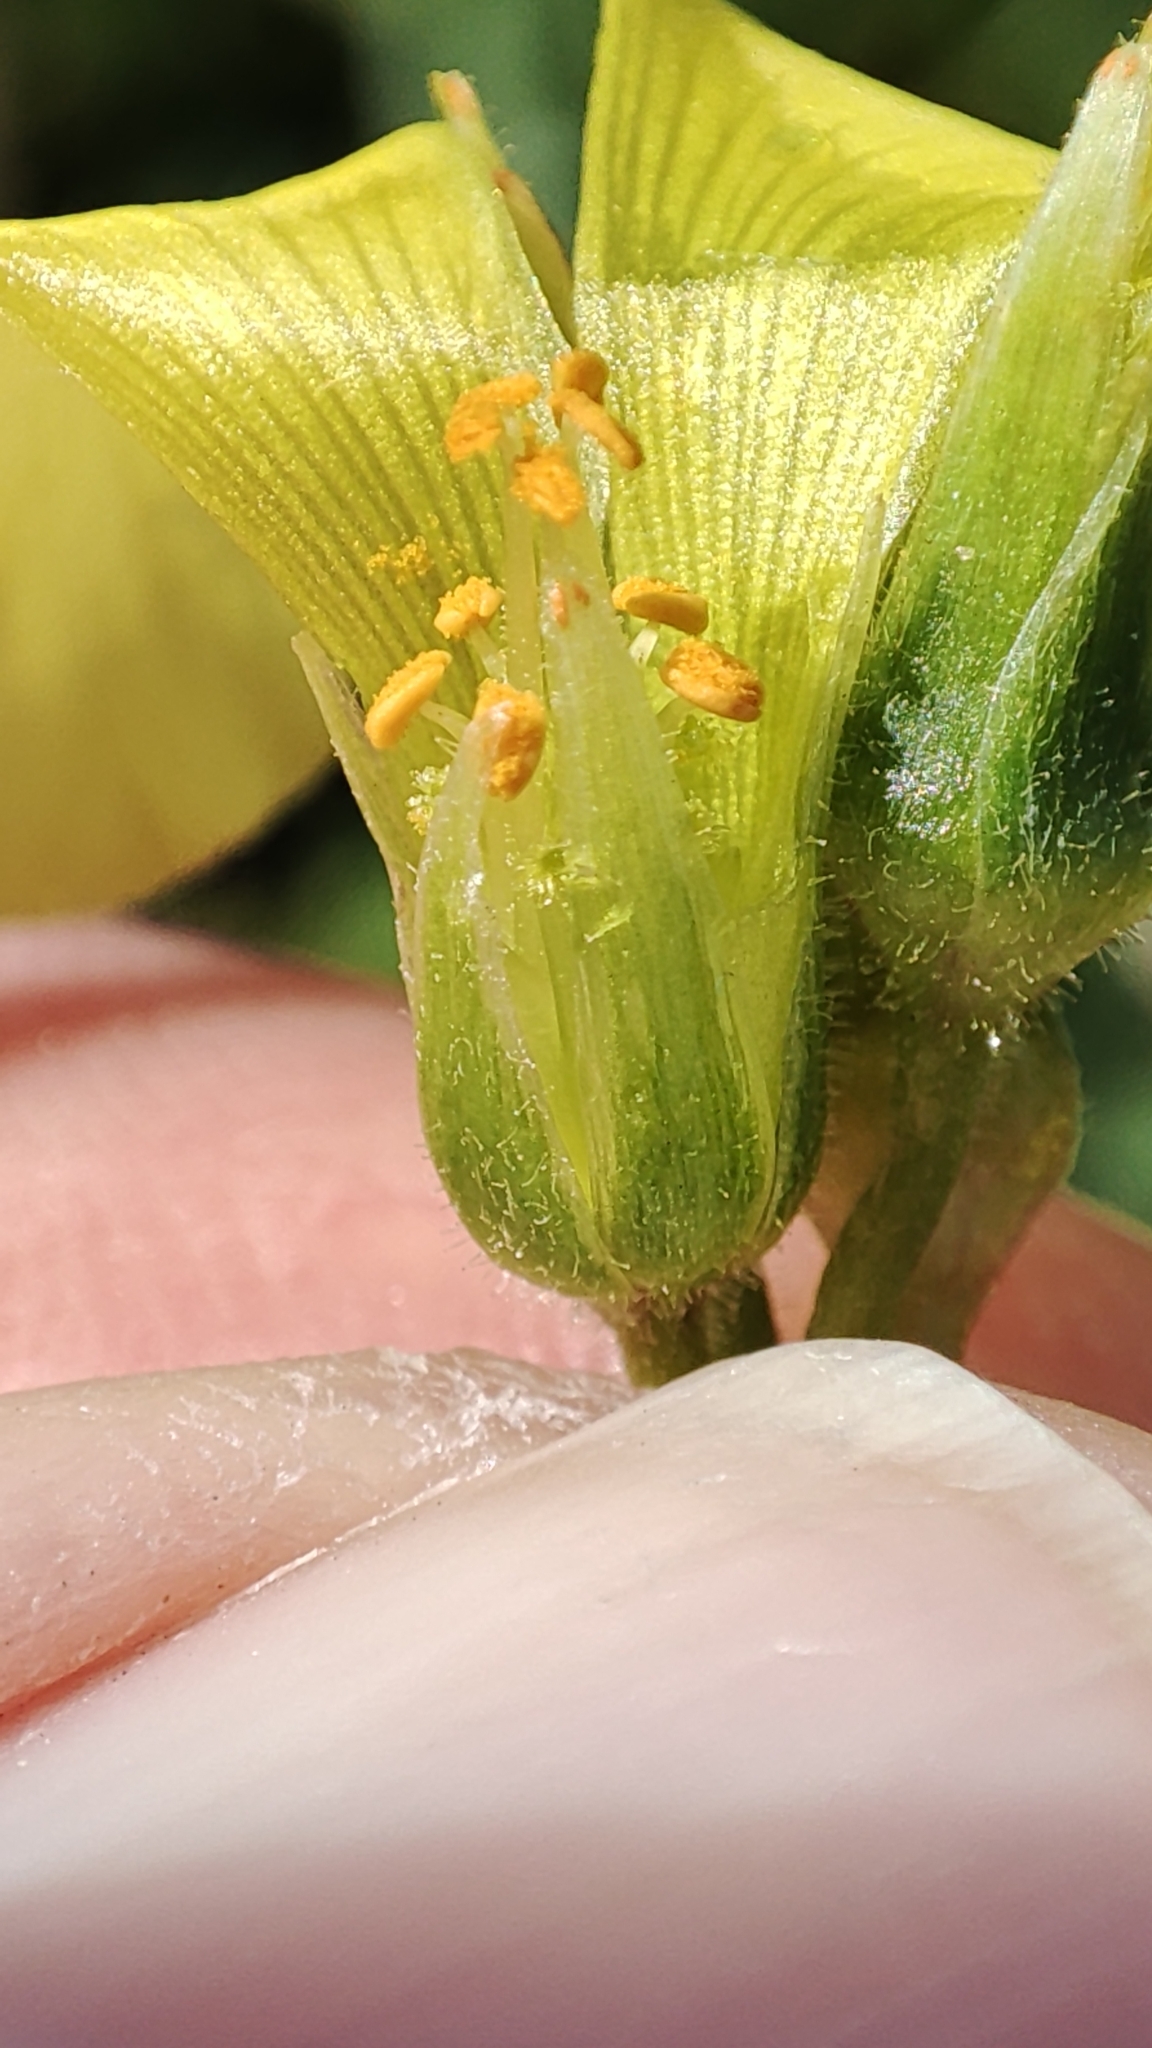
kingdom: Plantae
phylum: Tracheophyta
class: Magnoliopsida
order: Oxalidales
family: Oxalidaceae
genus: Oxalis
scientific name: Oxalis pes-caprae
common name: Bermuda-buttercup
